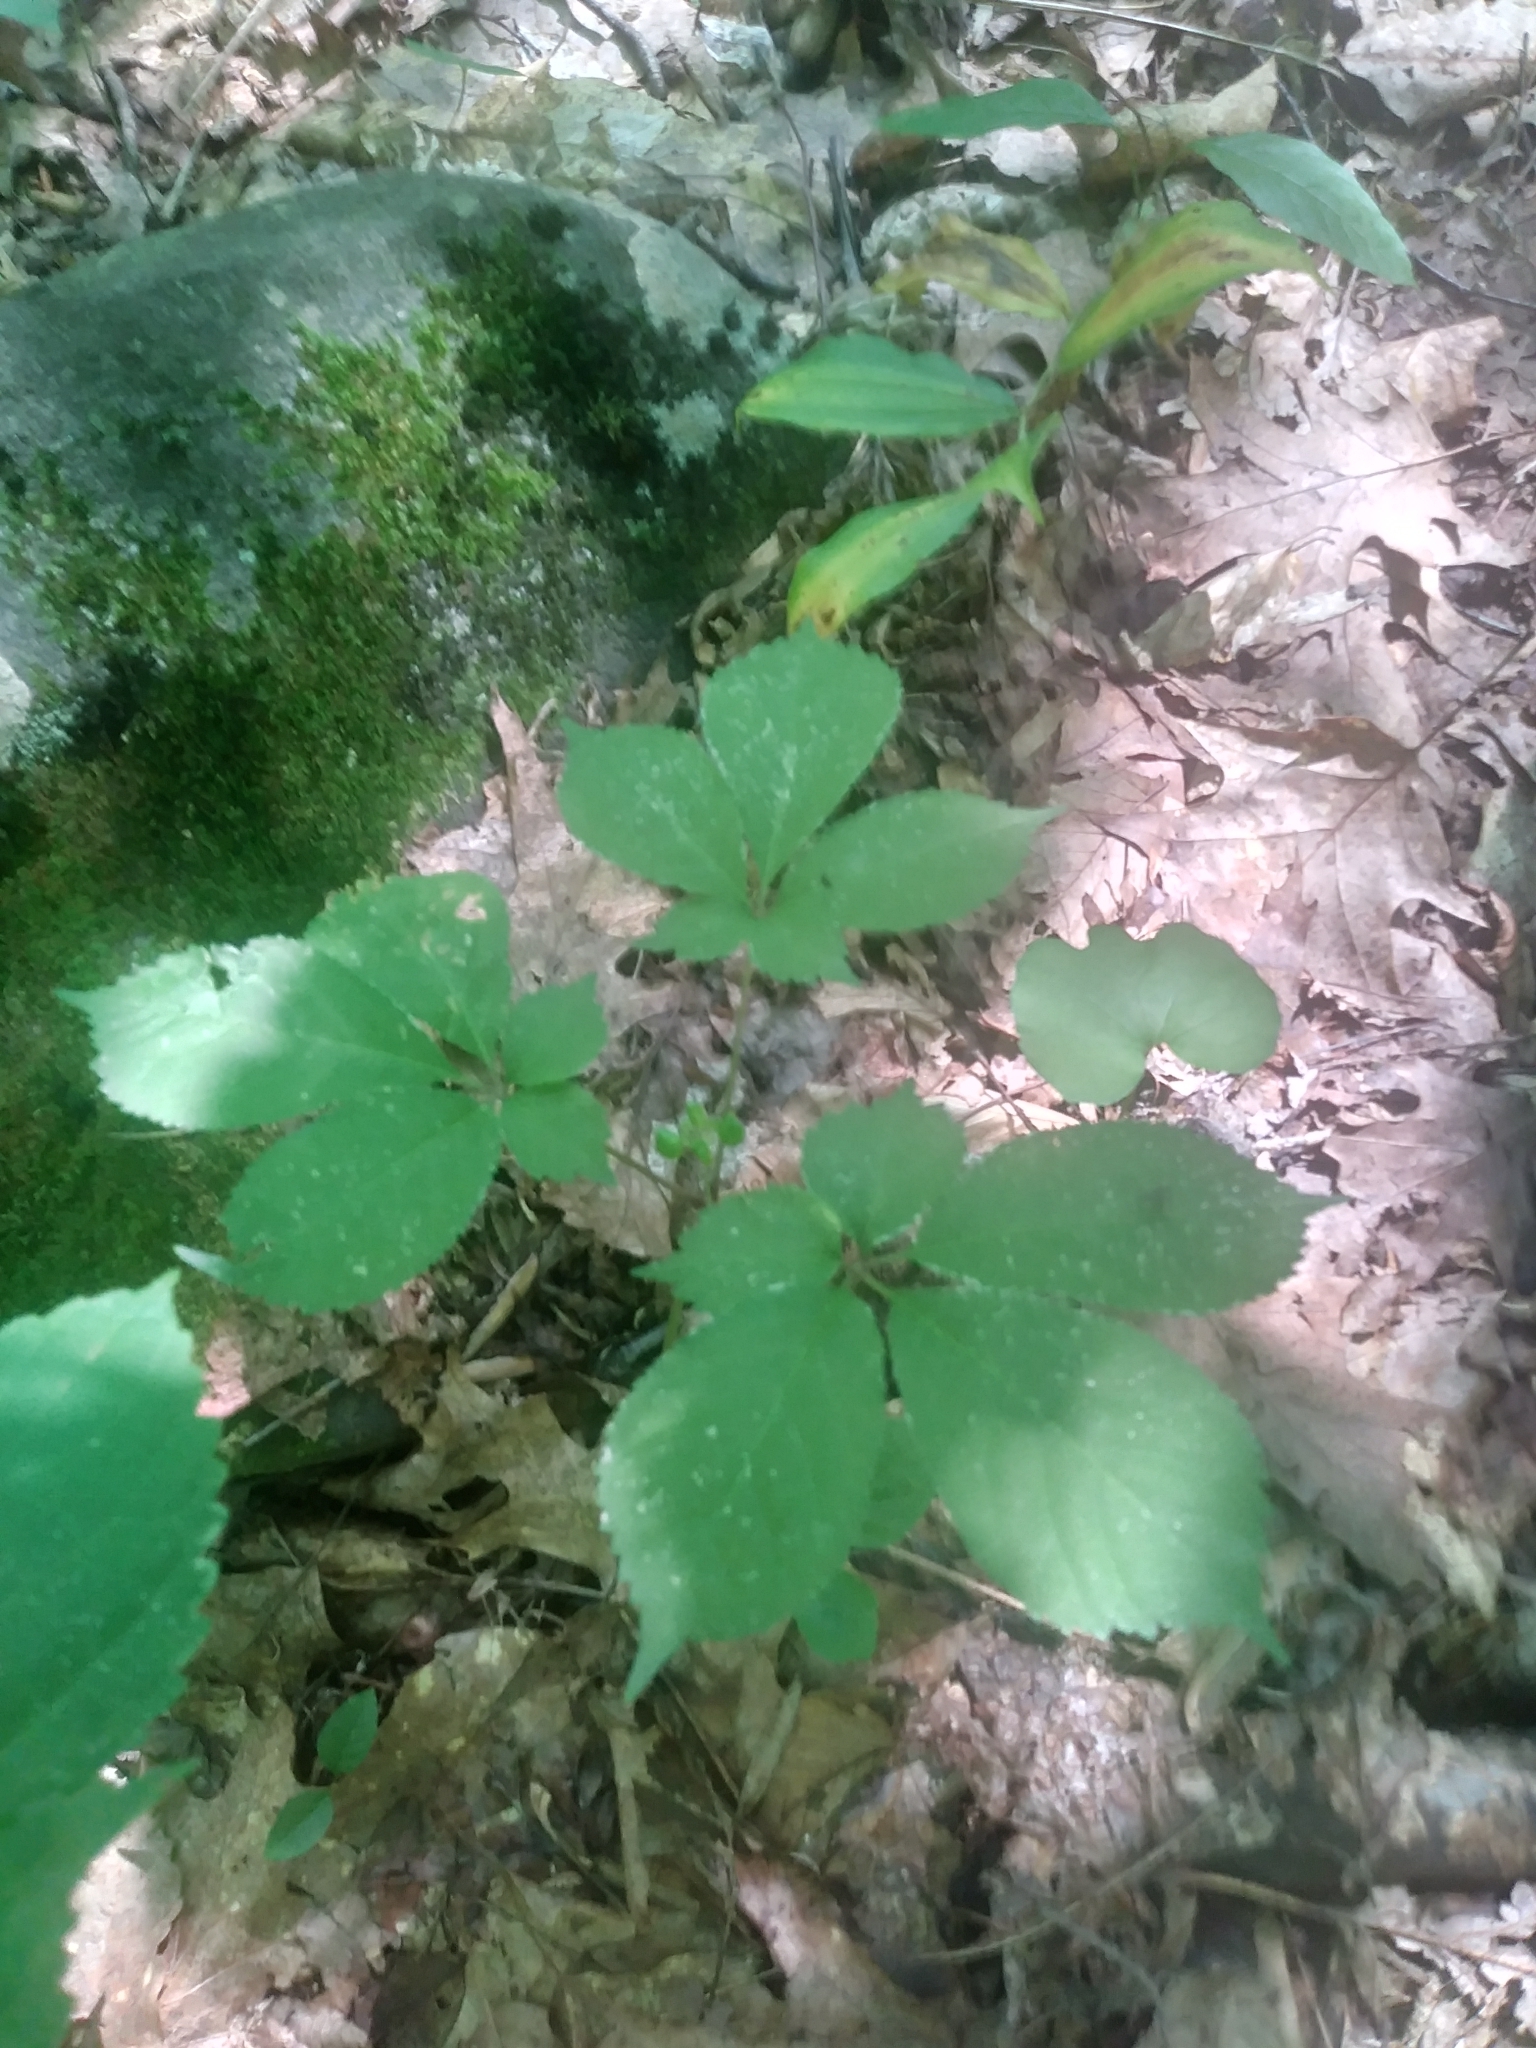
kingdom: Plantae
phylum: Tracheophyta
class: Magnoliopsida
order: Apiales
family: Araliaceae
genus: Panax
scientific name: Panax quinquefolius
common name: American ginseng
